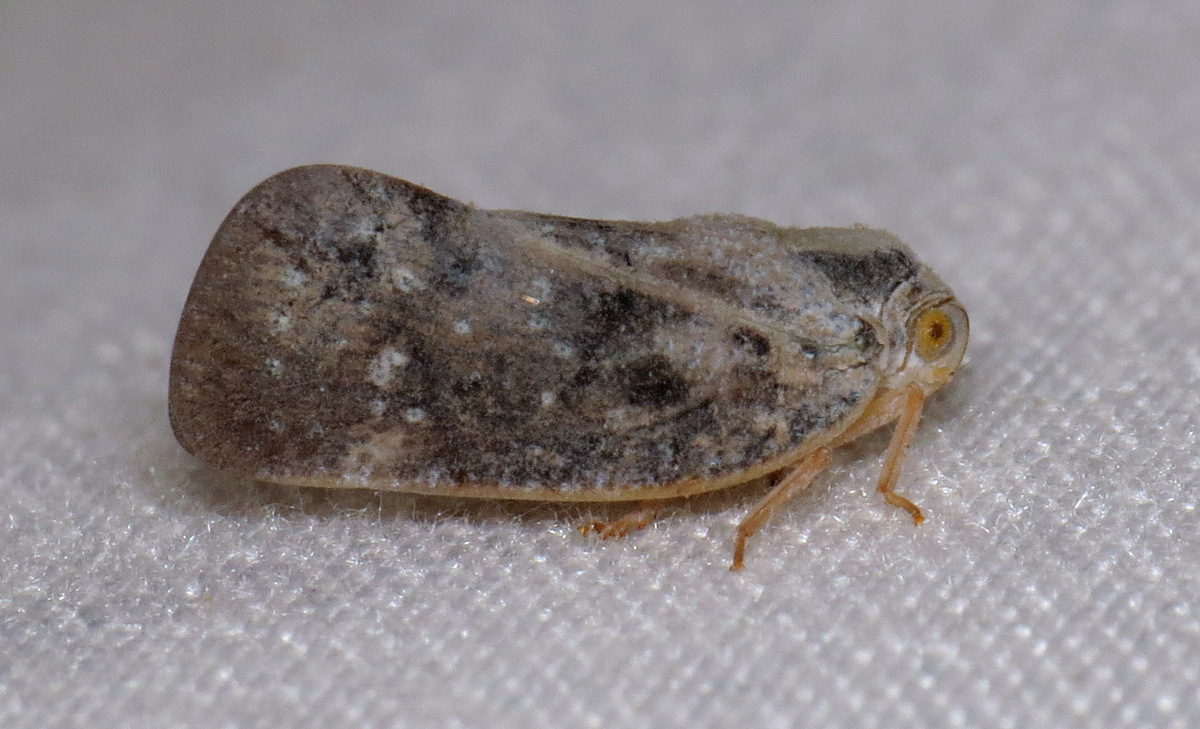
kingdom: Animalia
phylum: Arthropoda
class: Insecta
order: Hemiptera
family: Flatidae
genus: Metcalfa
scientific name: Metcalfa pruinosa
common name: Citrus flatid planthopper
